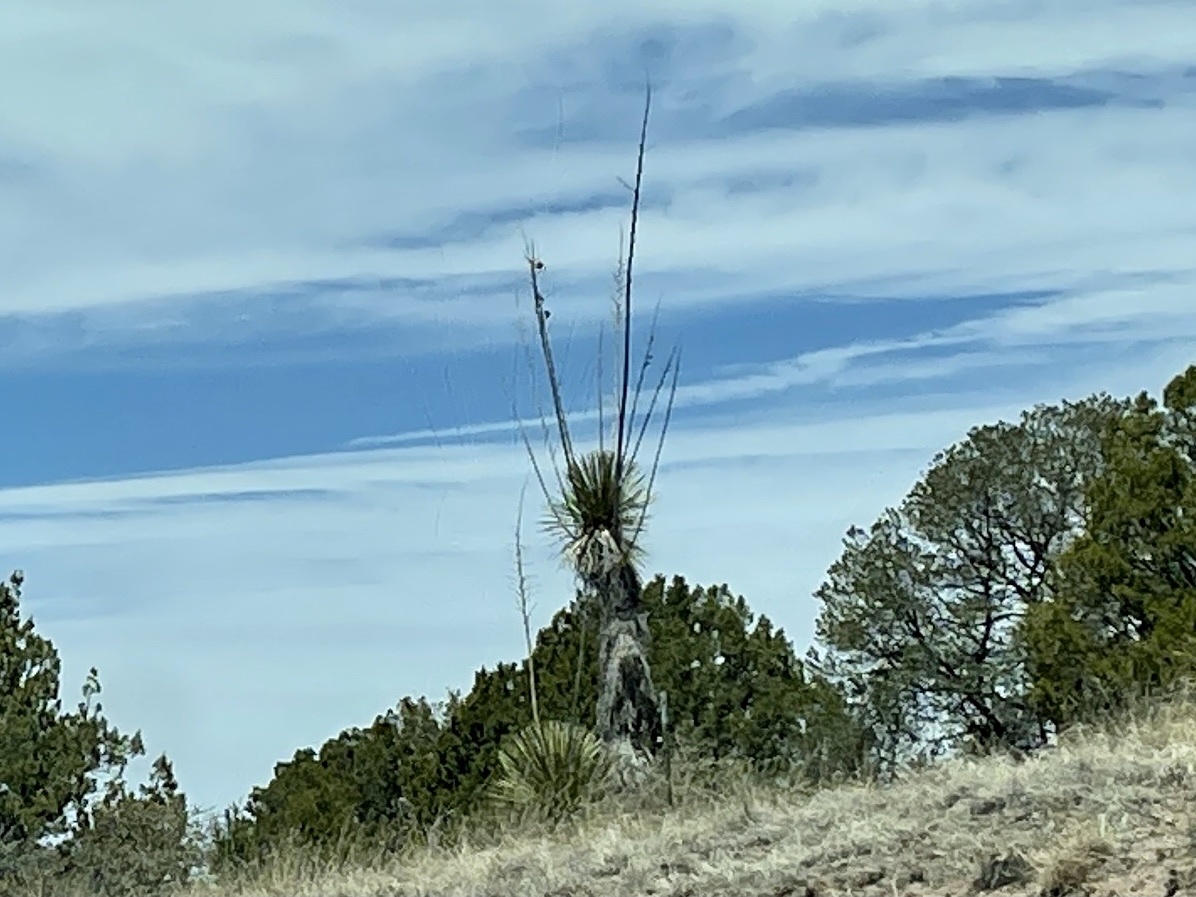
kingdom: Plantae
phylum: Tracheophyta
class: Liliopsida
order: Asparagales
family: Asparagaceae
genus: Yucca
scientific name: Yucca elata
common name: Palmella
